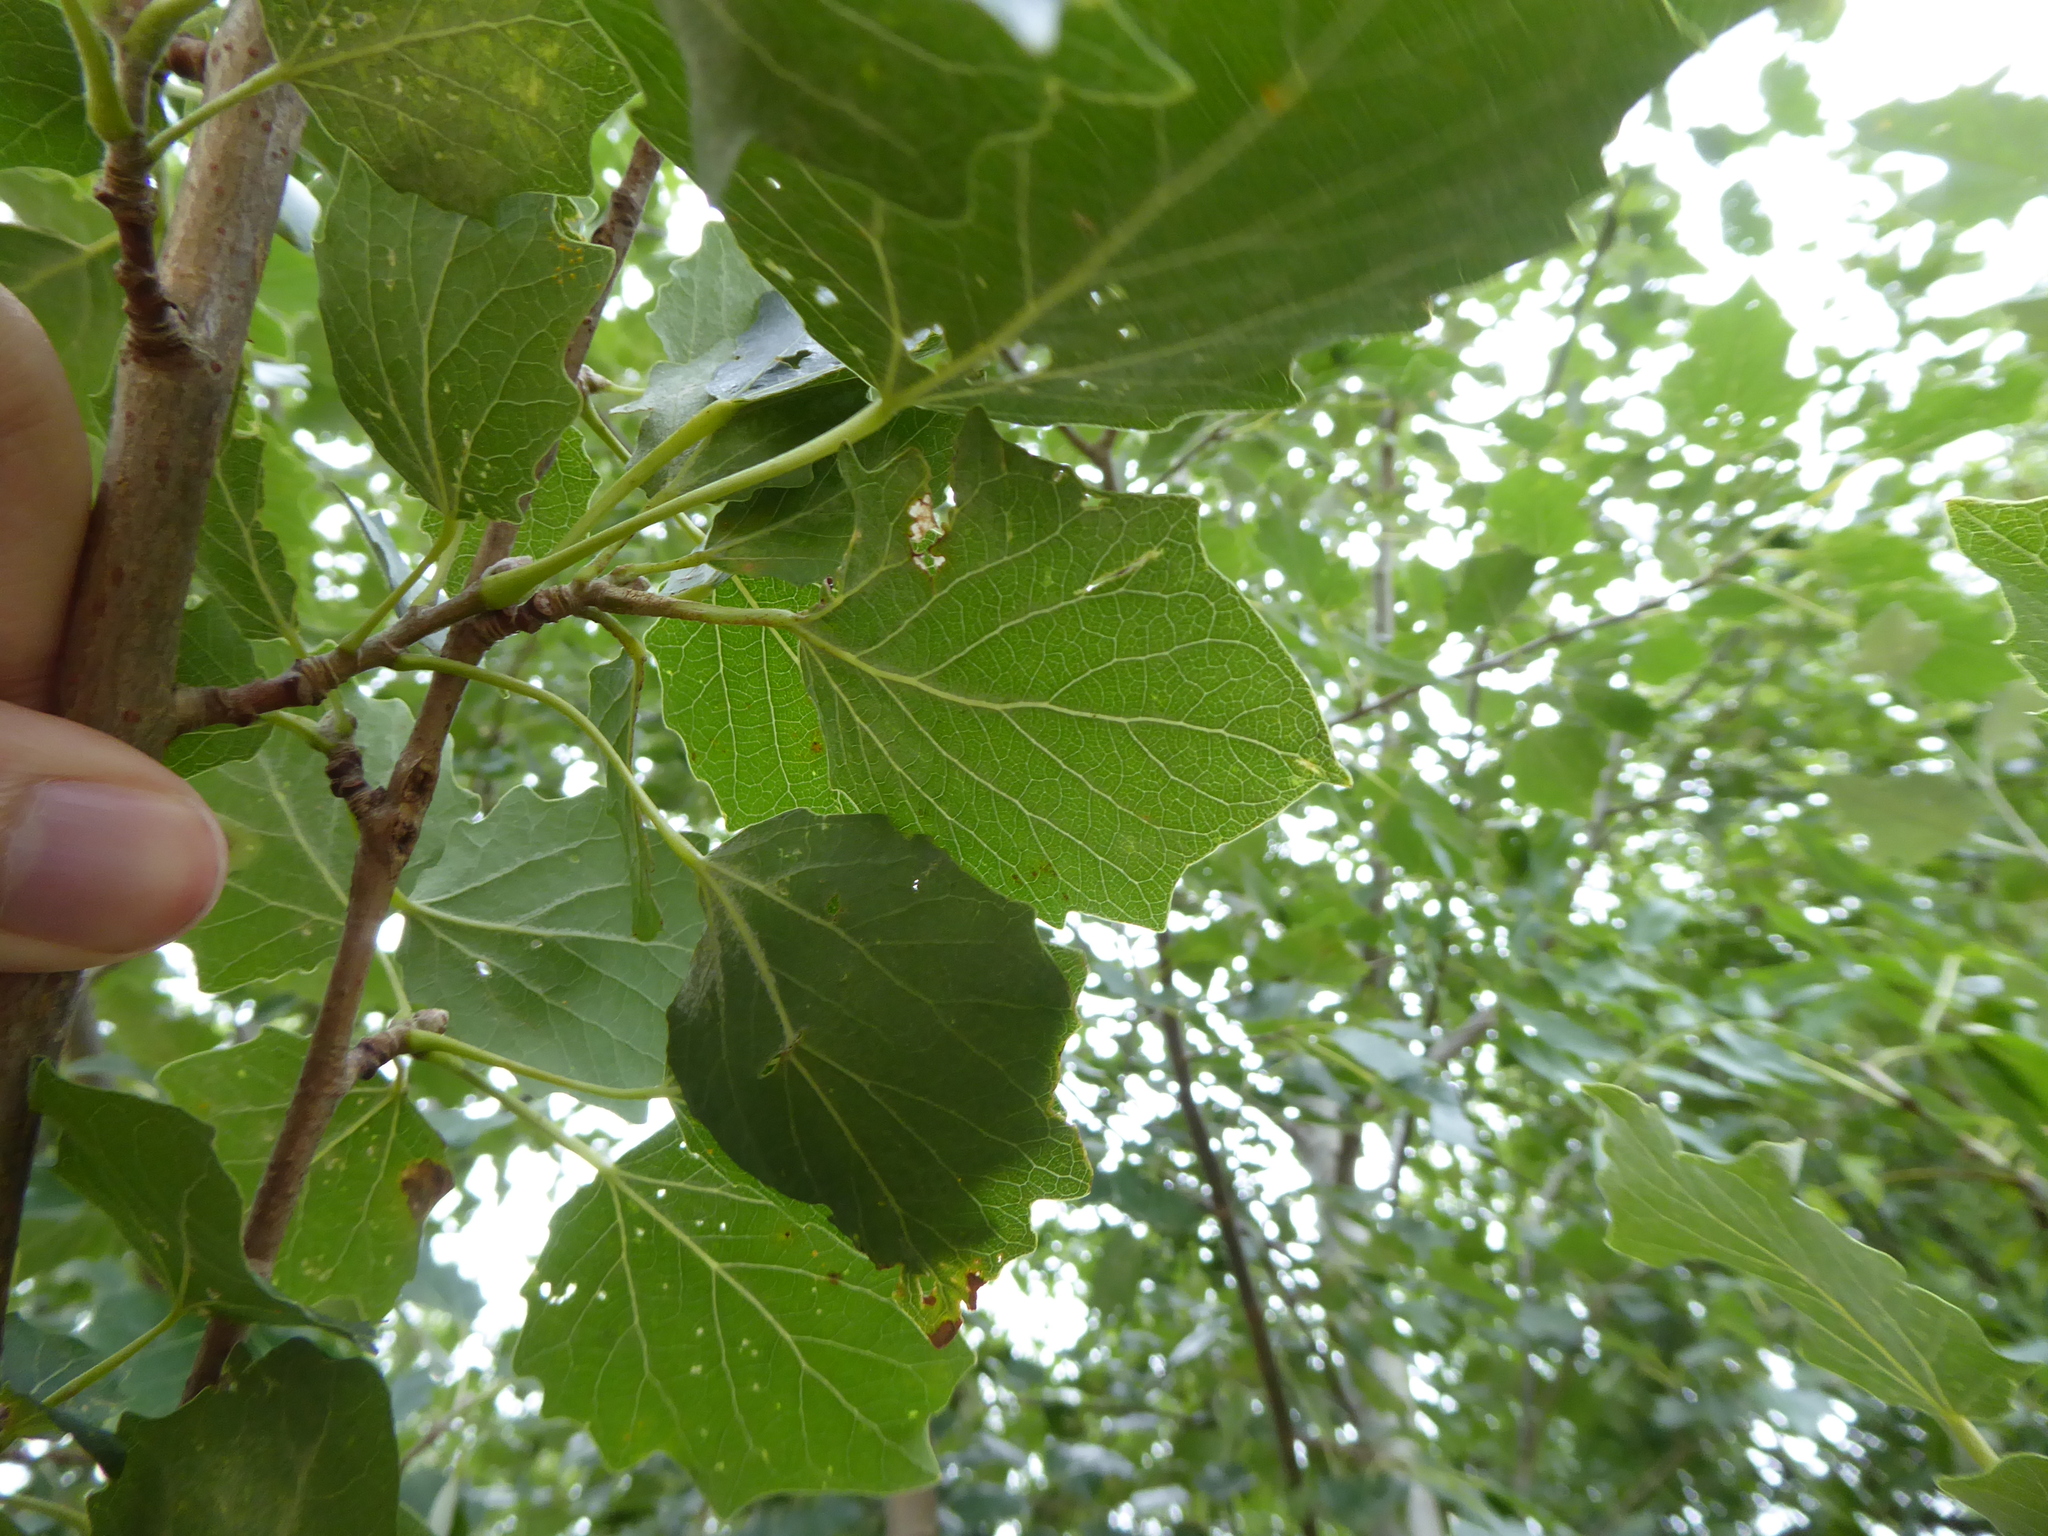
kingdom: Plantae
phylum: Tracheophyta
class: Magnoliopsida
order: Malpighiales
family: Salicaceae
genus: Populus
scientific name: Populus canescens
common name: Gray poplar
